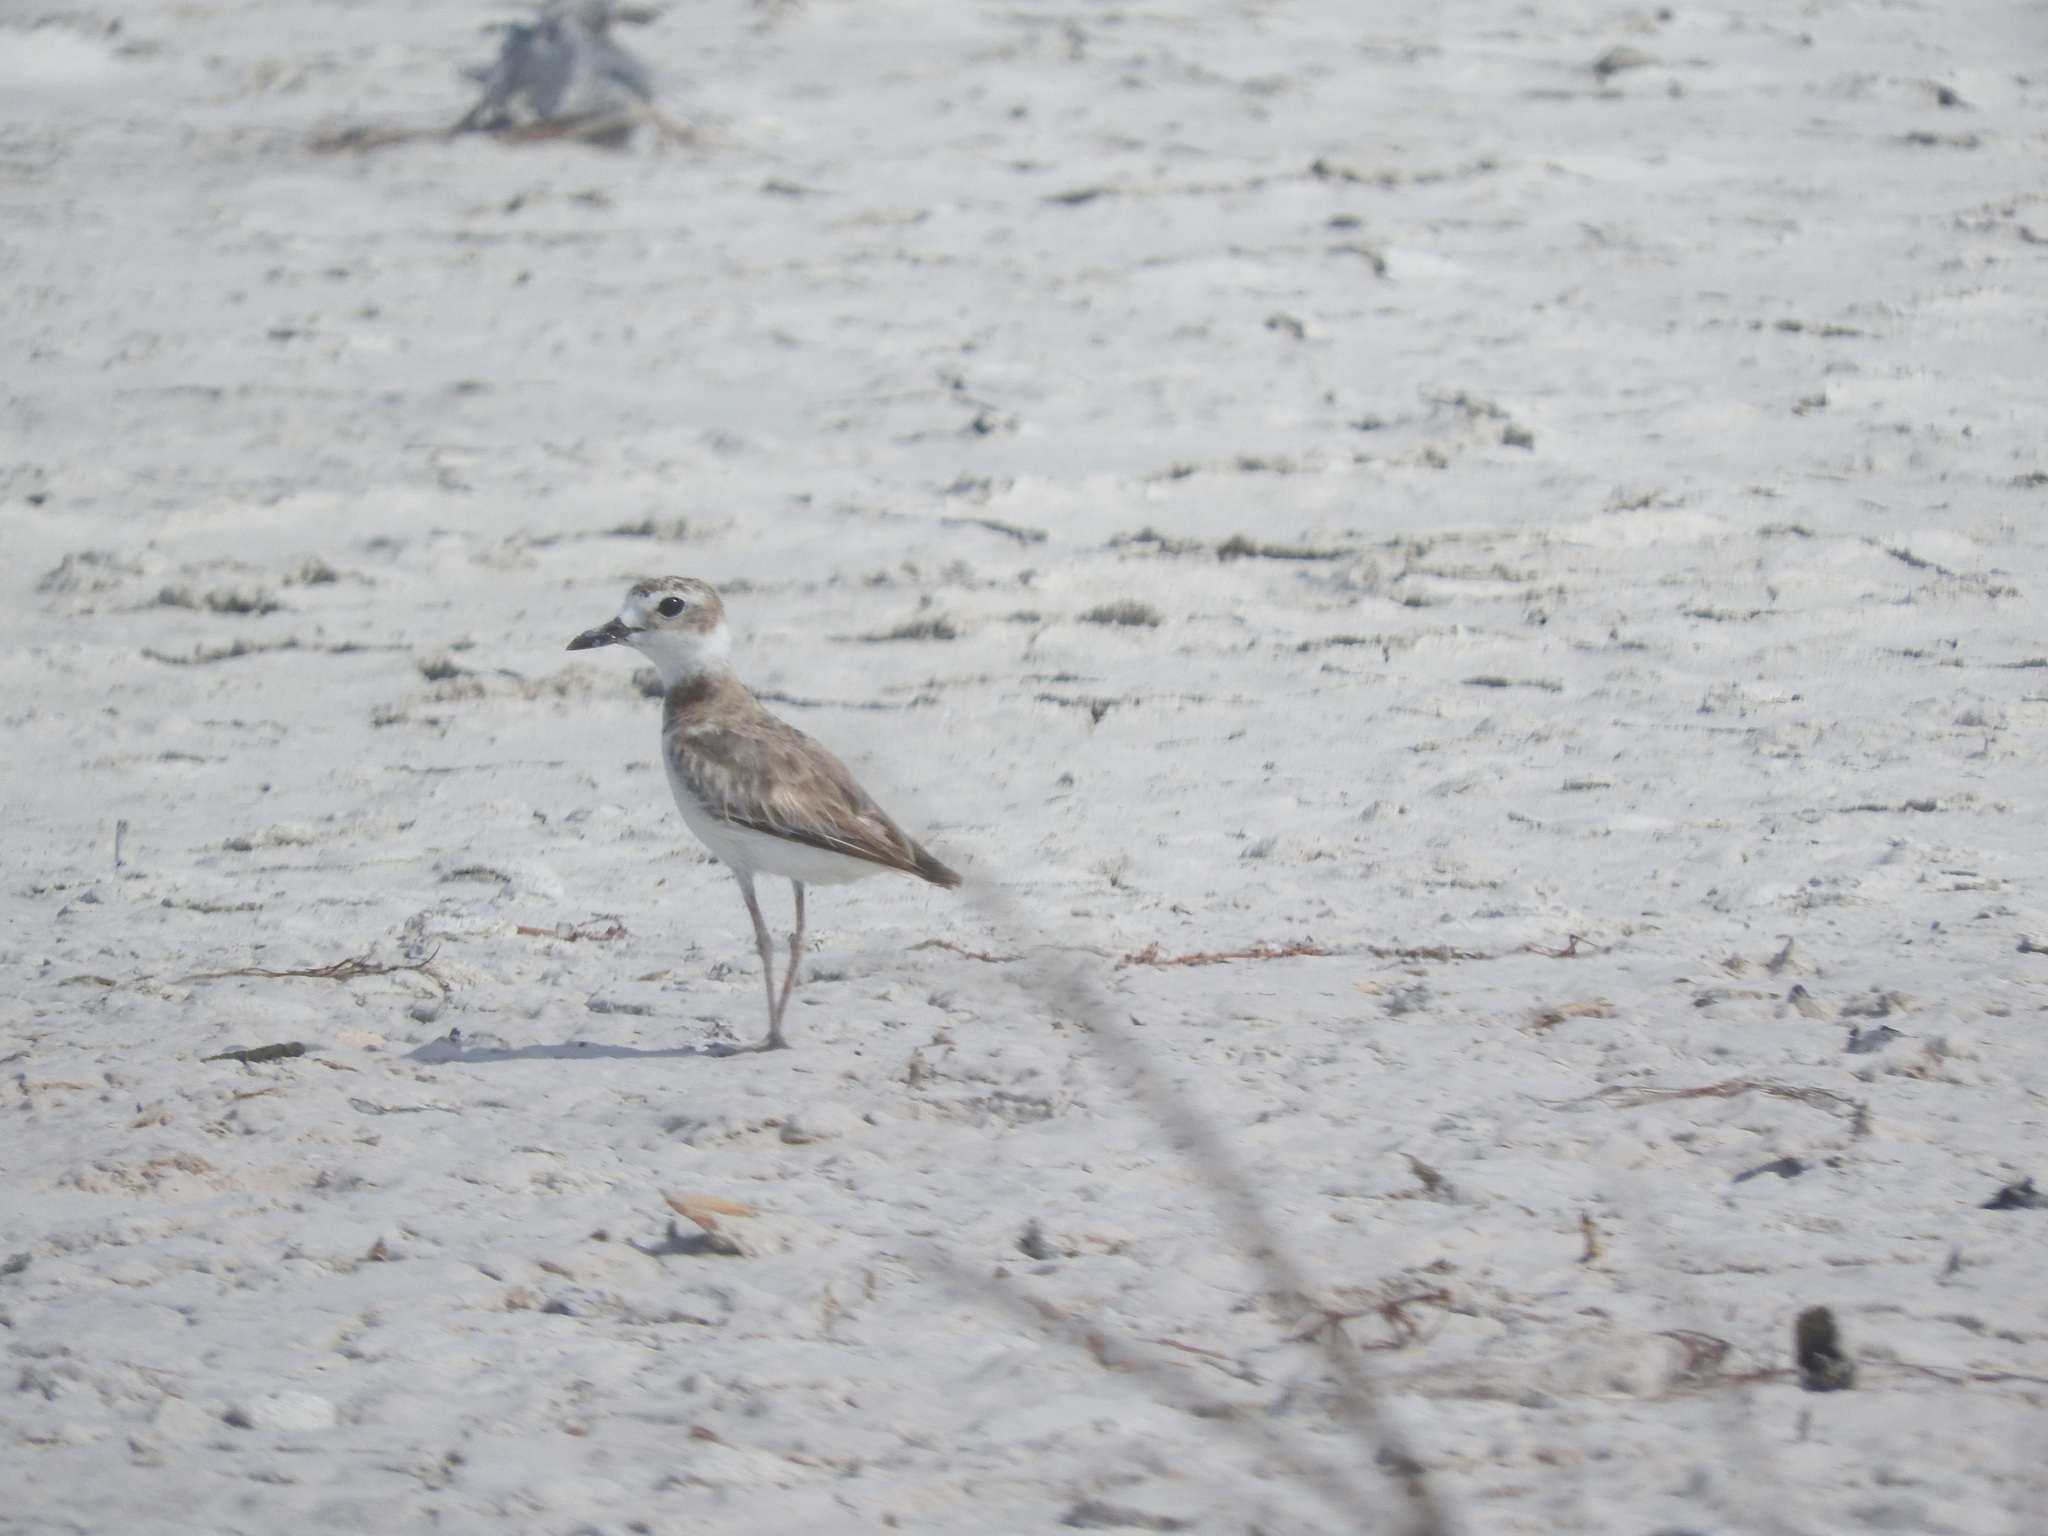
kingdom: Animalia
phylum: Chordata
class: Aves
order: Charadriiformes
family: Charadriidae
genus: Anarhynchus
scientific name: Anarhynchus
